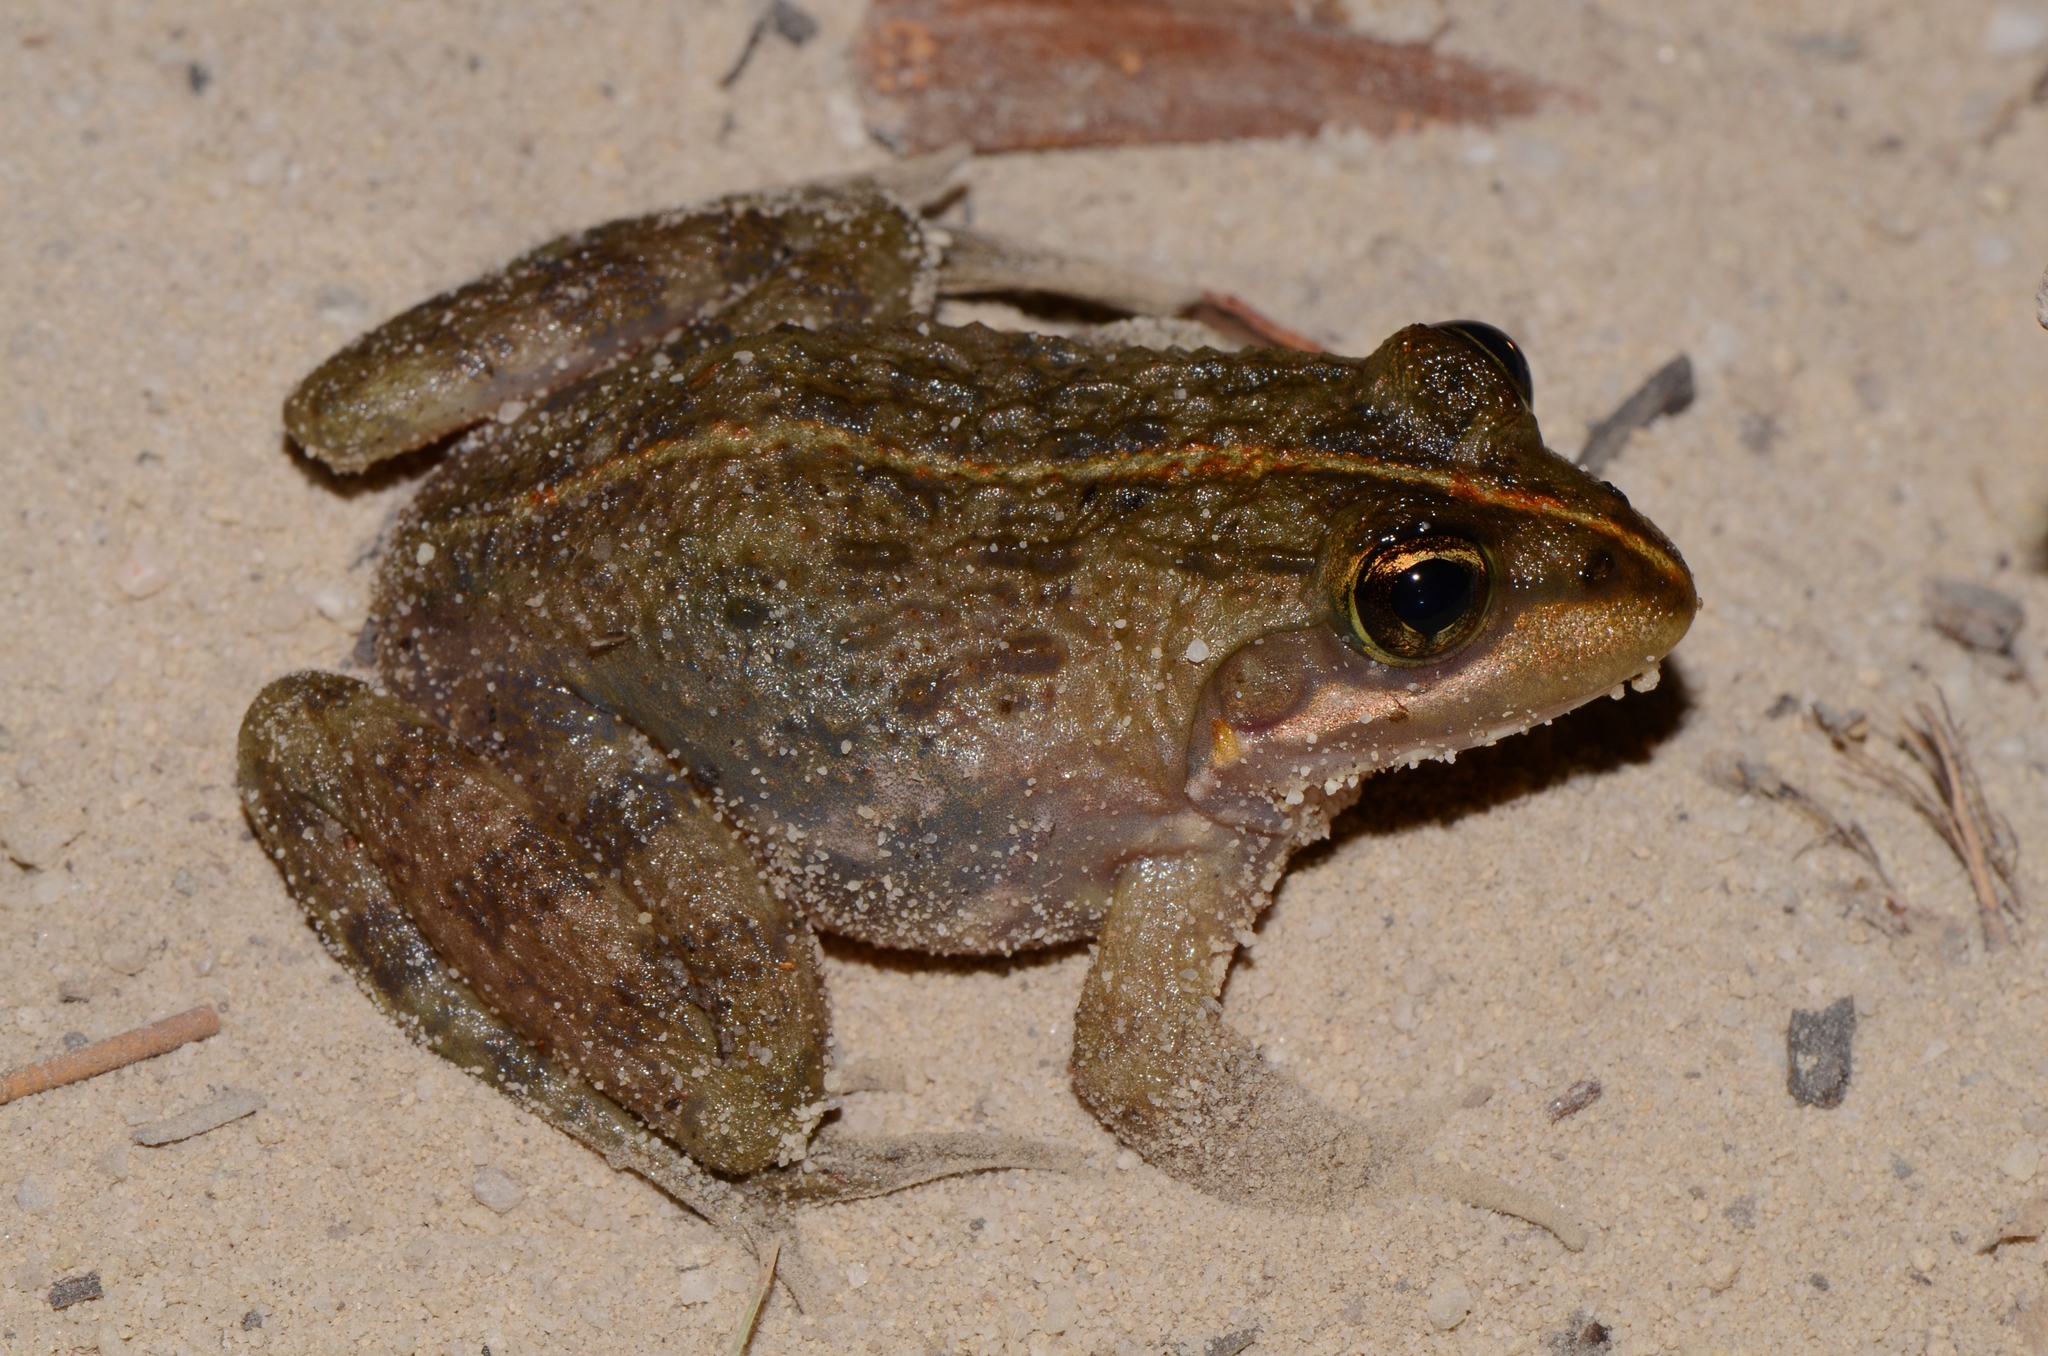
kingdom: Animalia
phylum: Chordata
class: Amphibia
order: Anura
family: Pyxicephalidae
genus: Amietia
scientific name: Amietia fuscigula
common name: Cape rana
